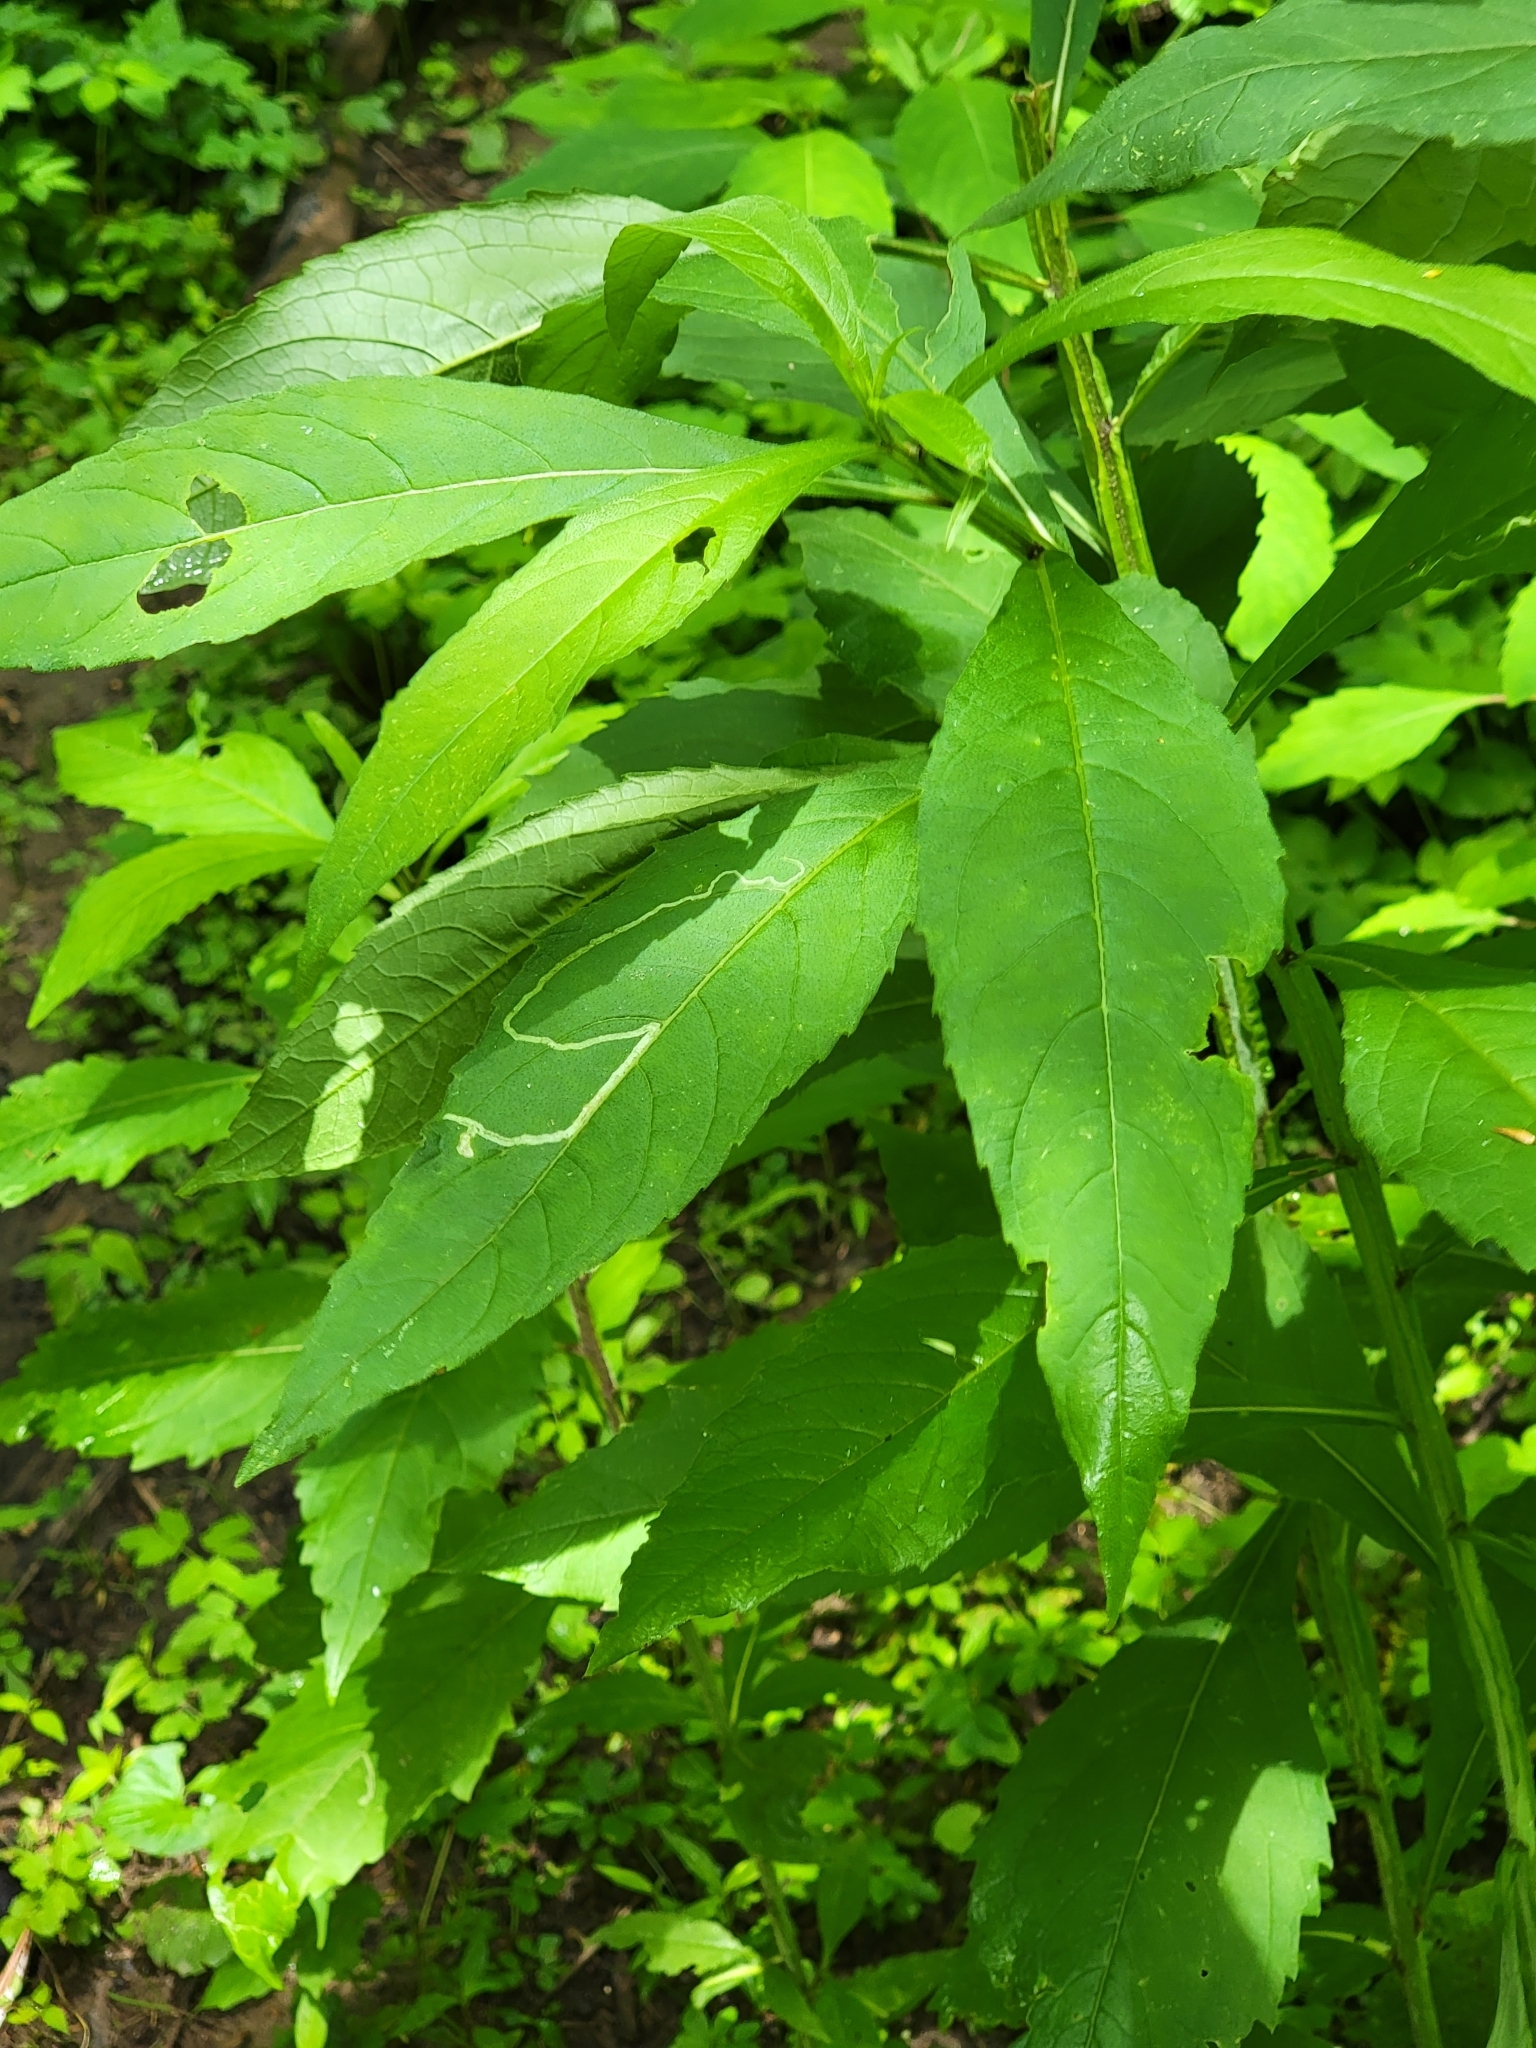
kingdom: Plantae
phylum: Tracheophyta
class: Magnoliopsida
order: Asterales
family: Asteraceae
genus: Verbesina
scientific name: Verbesina alternifolia
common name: Wingstem
